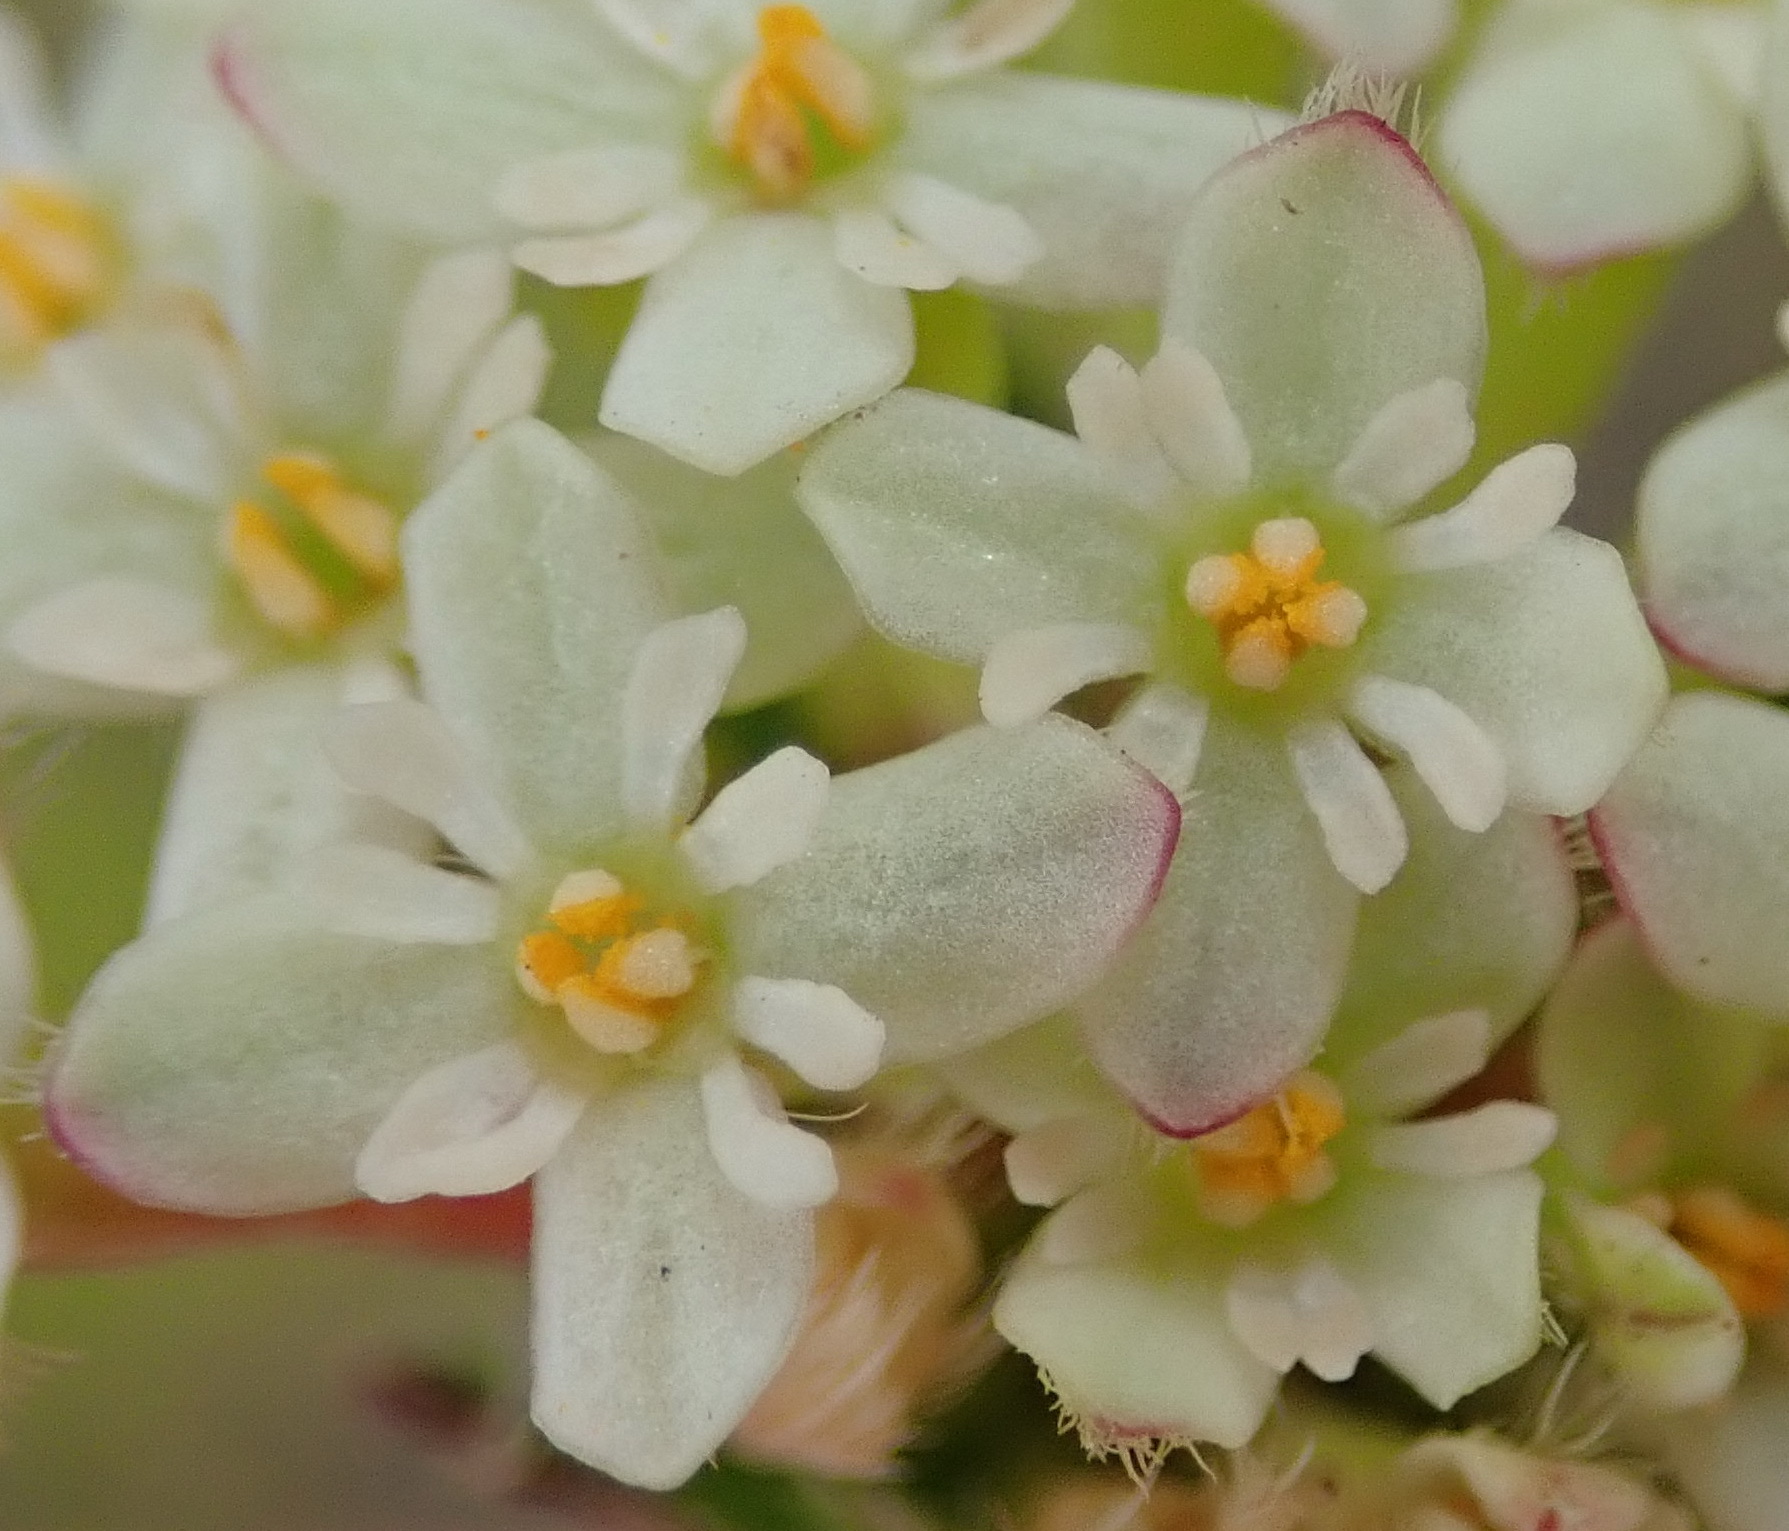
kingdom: Plantae
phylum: Tracheophyta
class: Magnoliopsida
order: Malvales
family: Thymelaeaceae
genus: Gnidia
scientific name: Gnidia squarrosa
